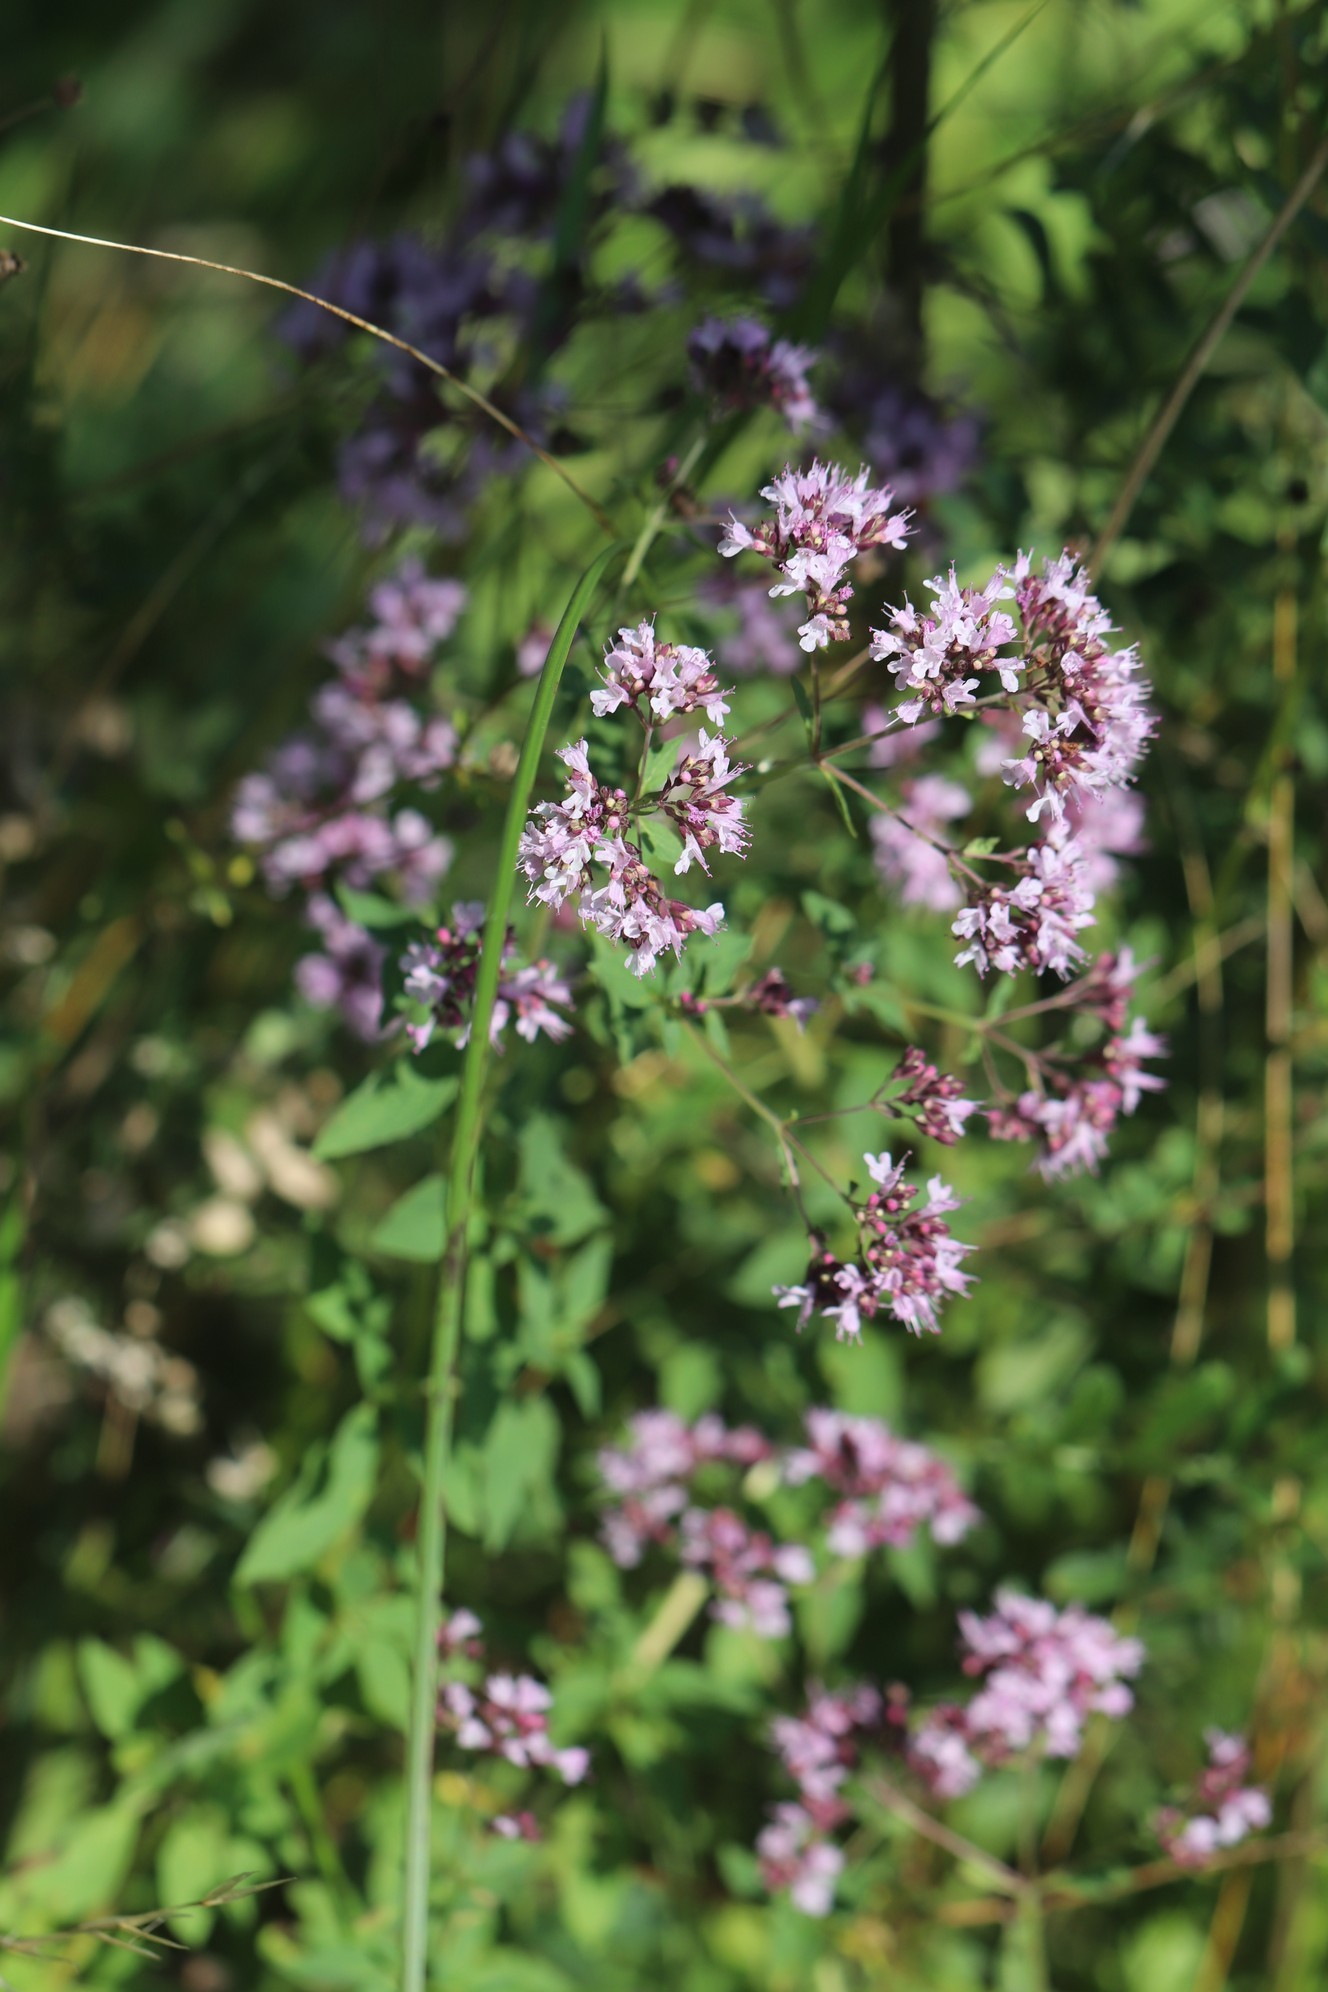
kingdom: Plantae
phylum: Tracheophyta
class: Magnoliopsida
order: Lamiales
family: Lamiaceae
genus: Origanum
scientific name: Origanum vulgare
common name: Wild marjoram
